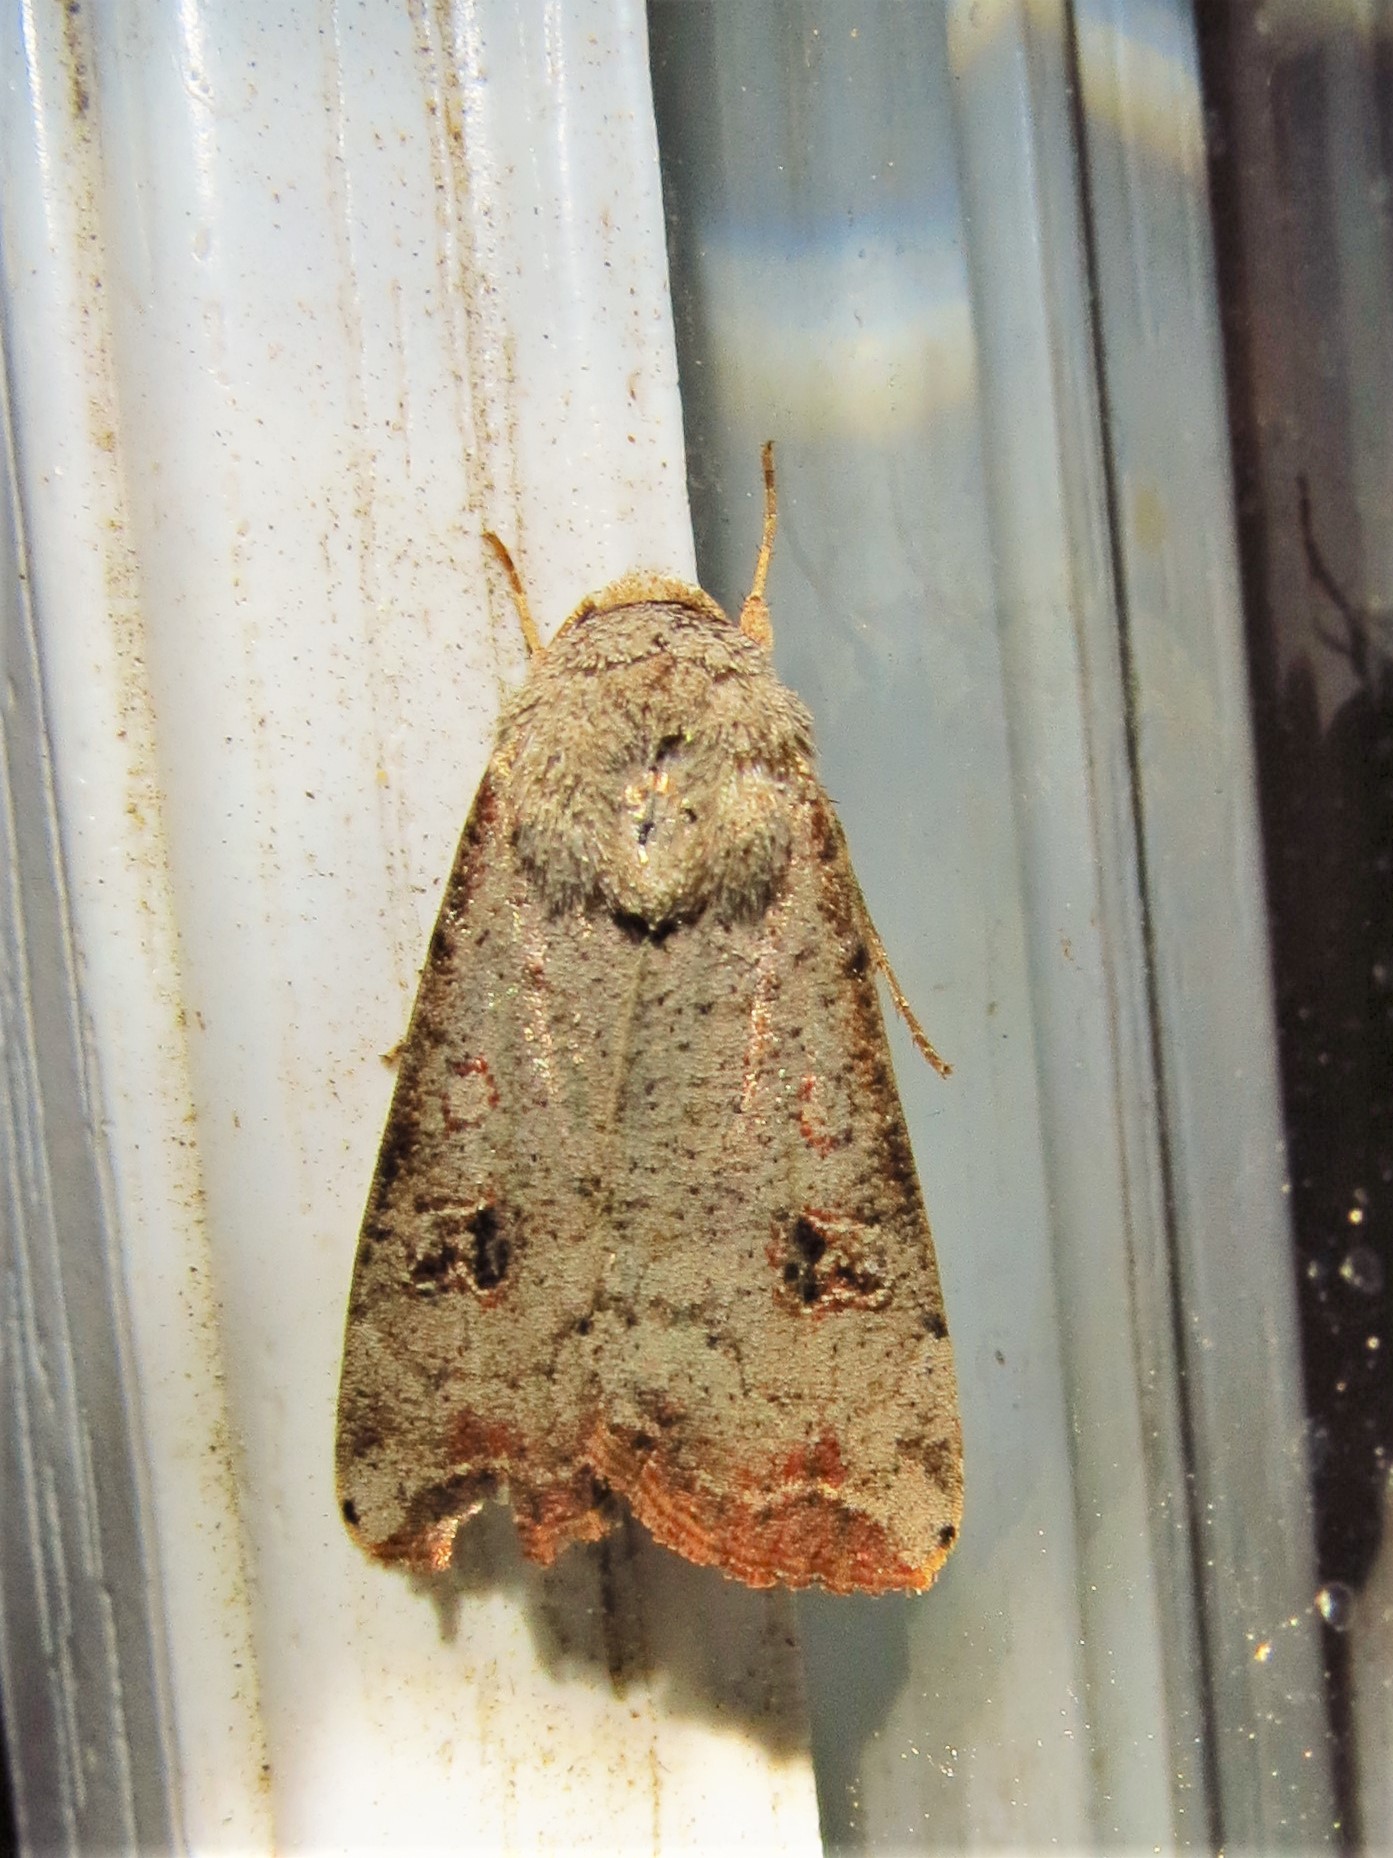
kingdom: Animalia
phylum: Arthropoda
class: Insecta
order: Lepidoptera
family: Noctuidae
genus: Anicla
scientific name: Anicla infecta
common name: Green cutworm
